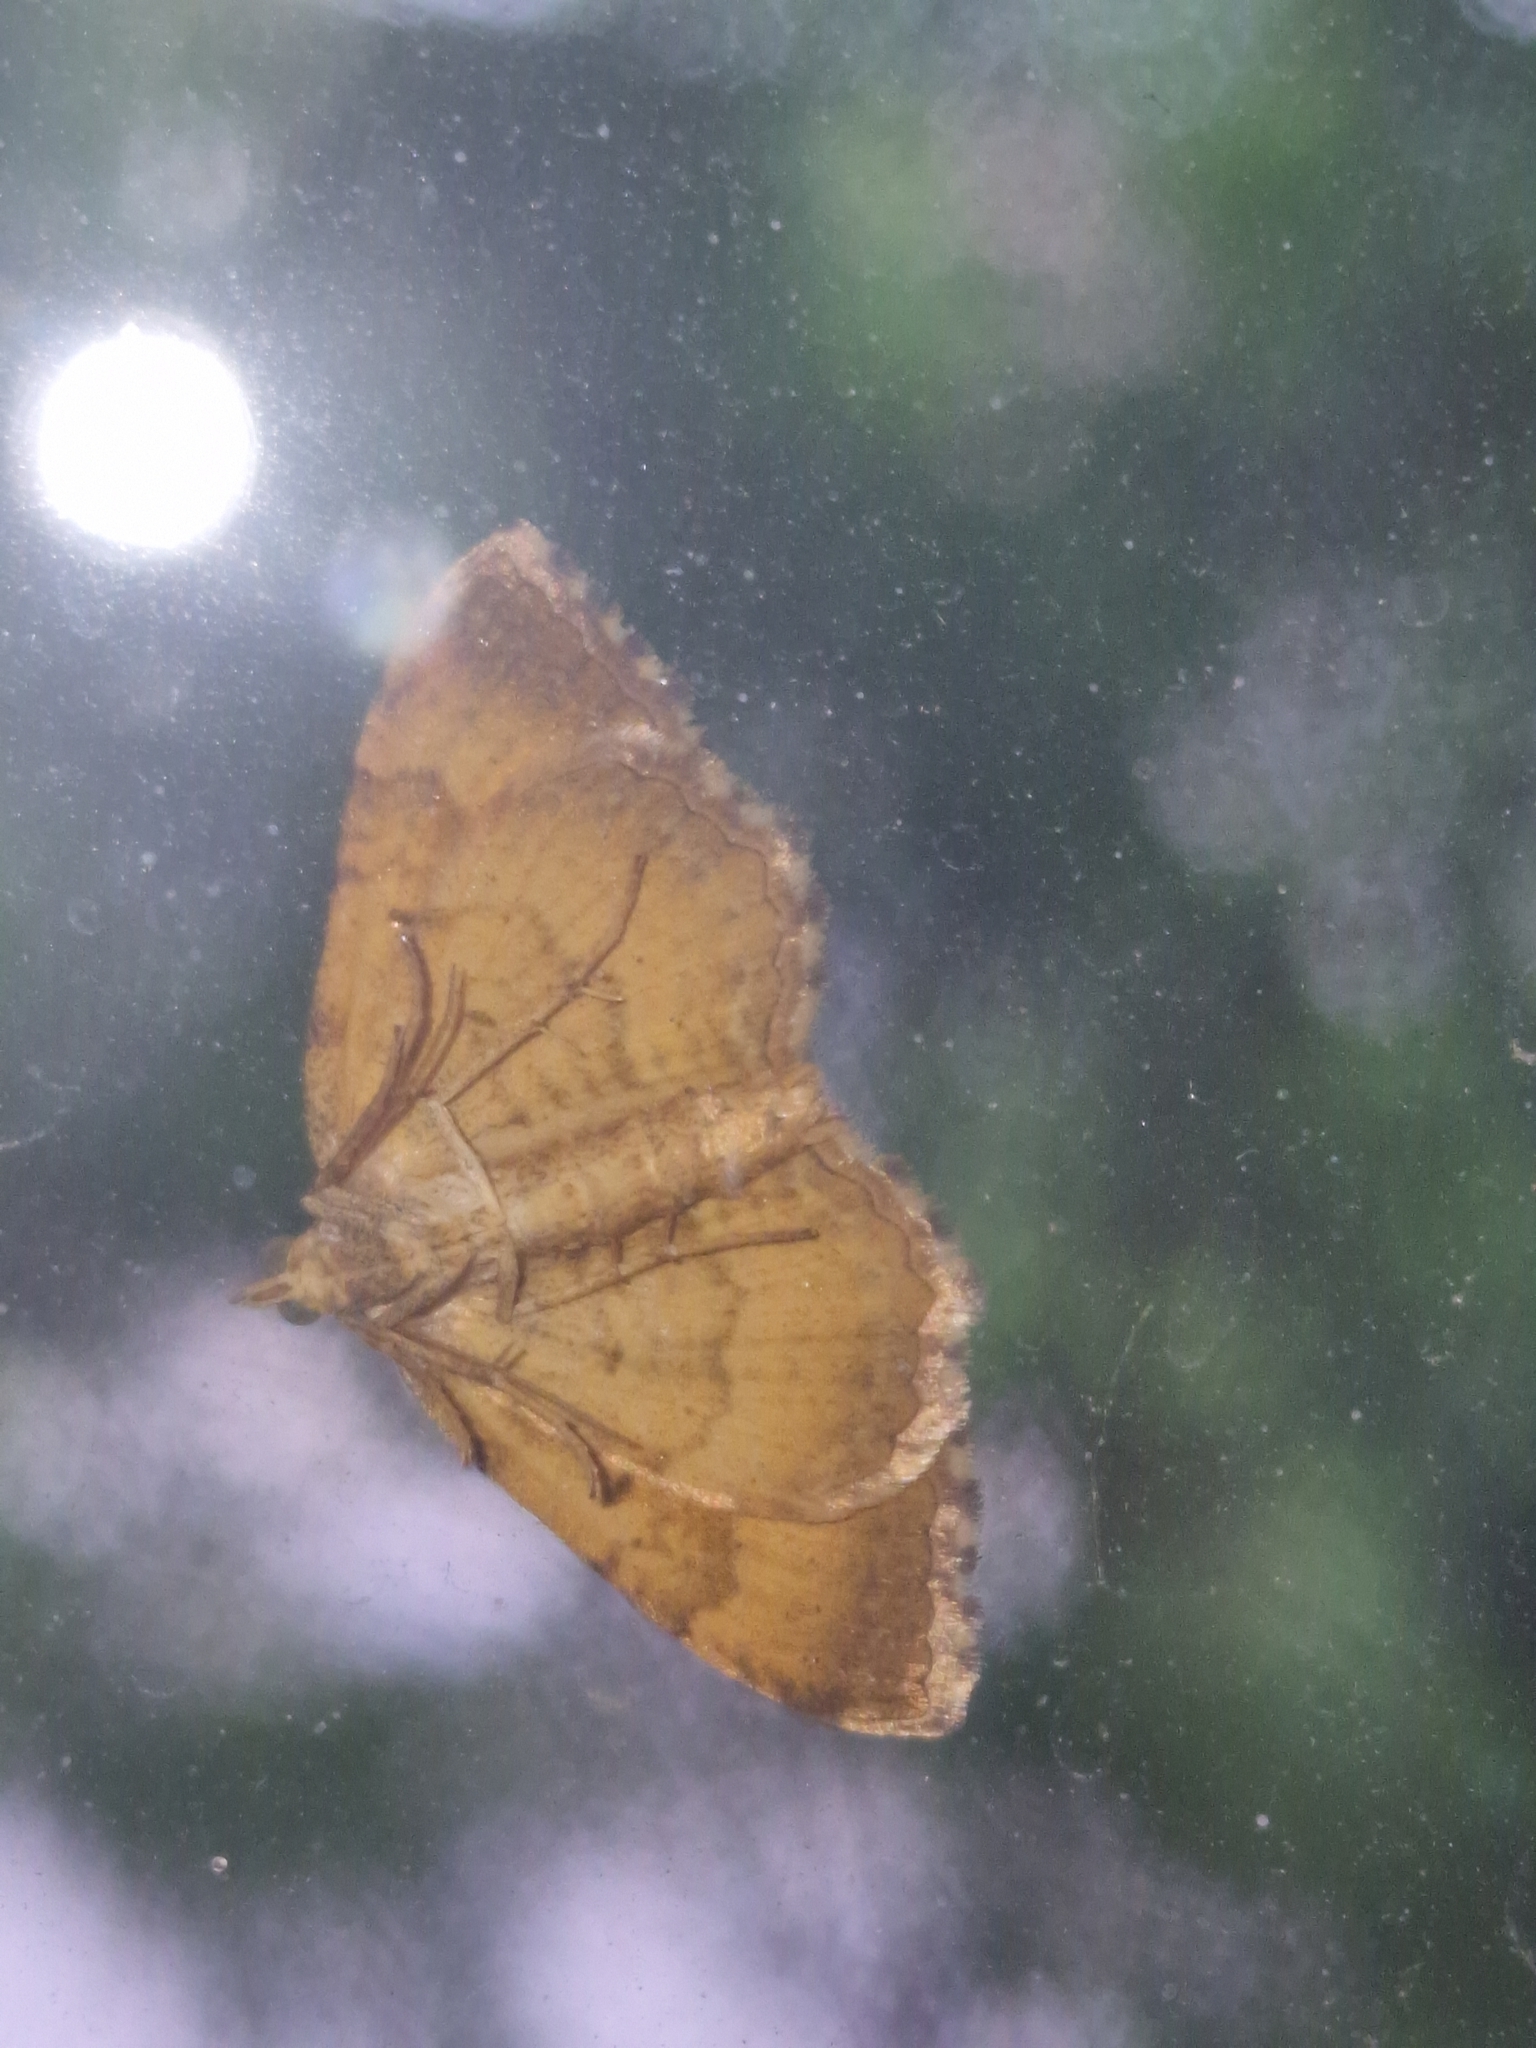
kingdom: Animalia
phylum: Arthropoda
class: Insecta
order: Lepidoptera
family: Geometridae
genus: Camptogramma
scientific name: Camptogramma bilineata
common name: Yellow shell
